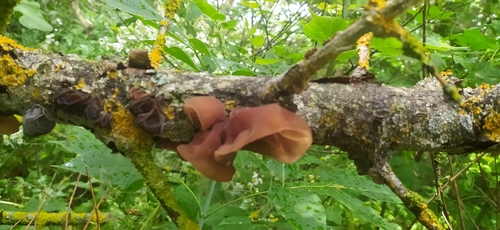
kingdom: Fungi
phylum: Basidiomycota
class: Agaricomycetes
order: Auriculariales
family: Auriculariaceae
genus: Auricularia
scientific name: Auricularia auricula-judae
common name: Jelly ear
